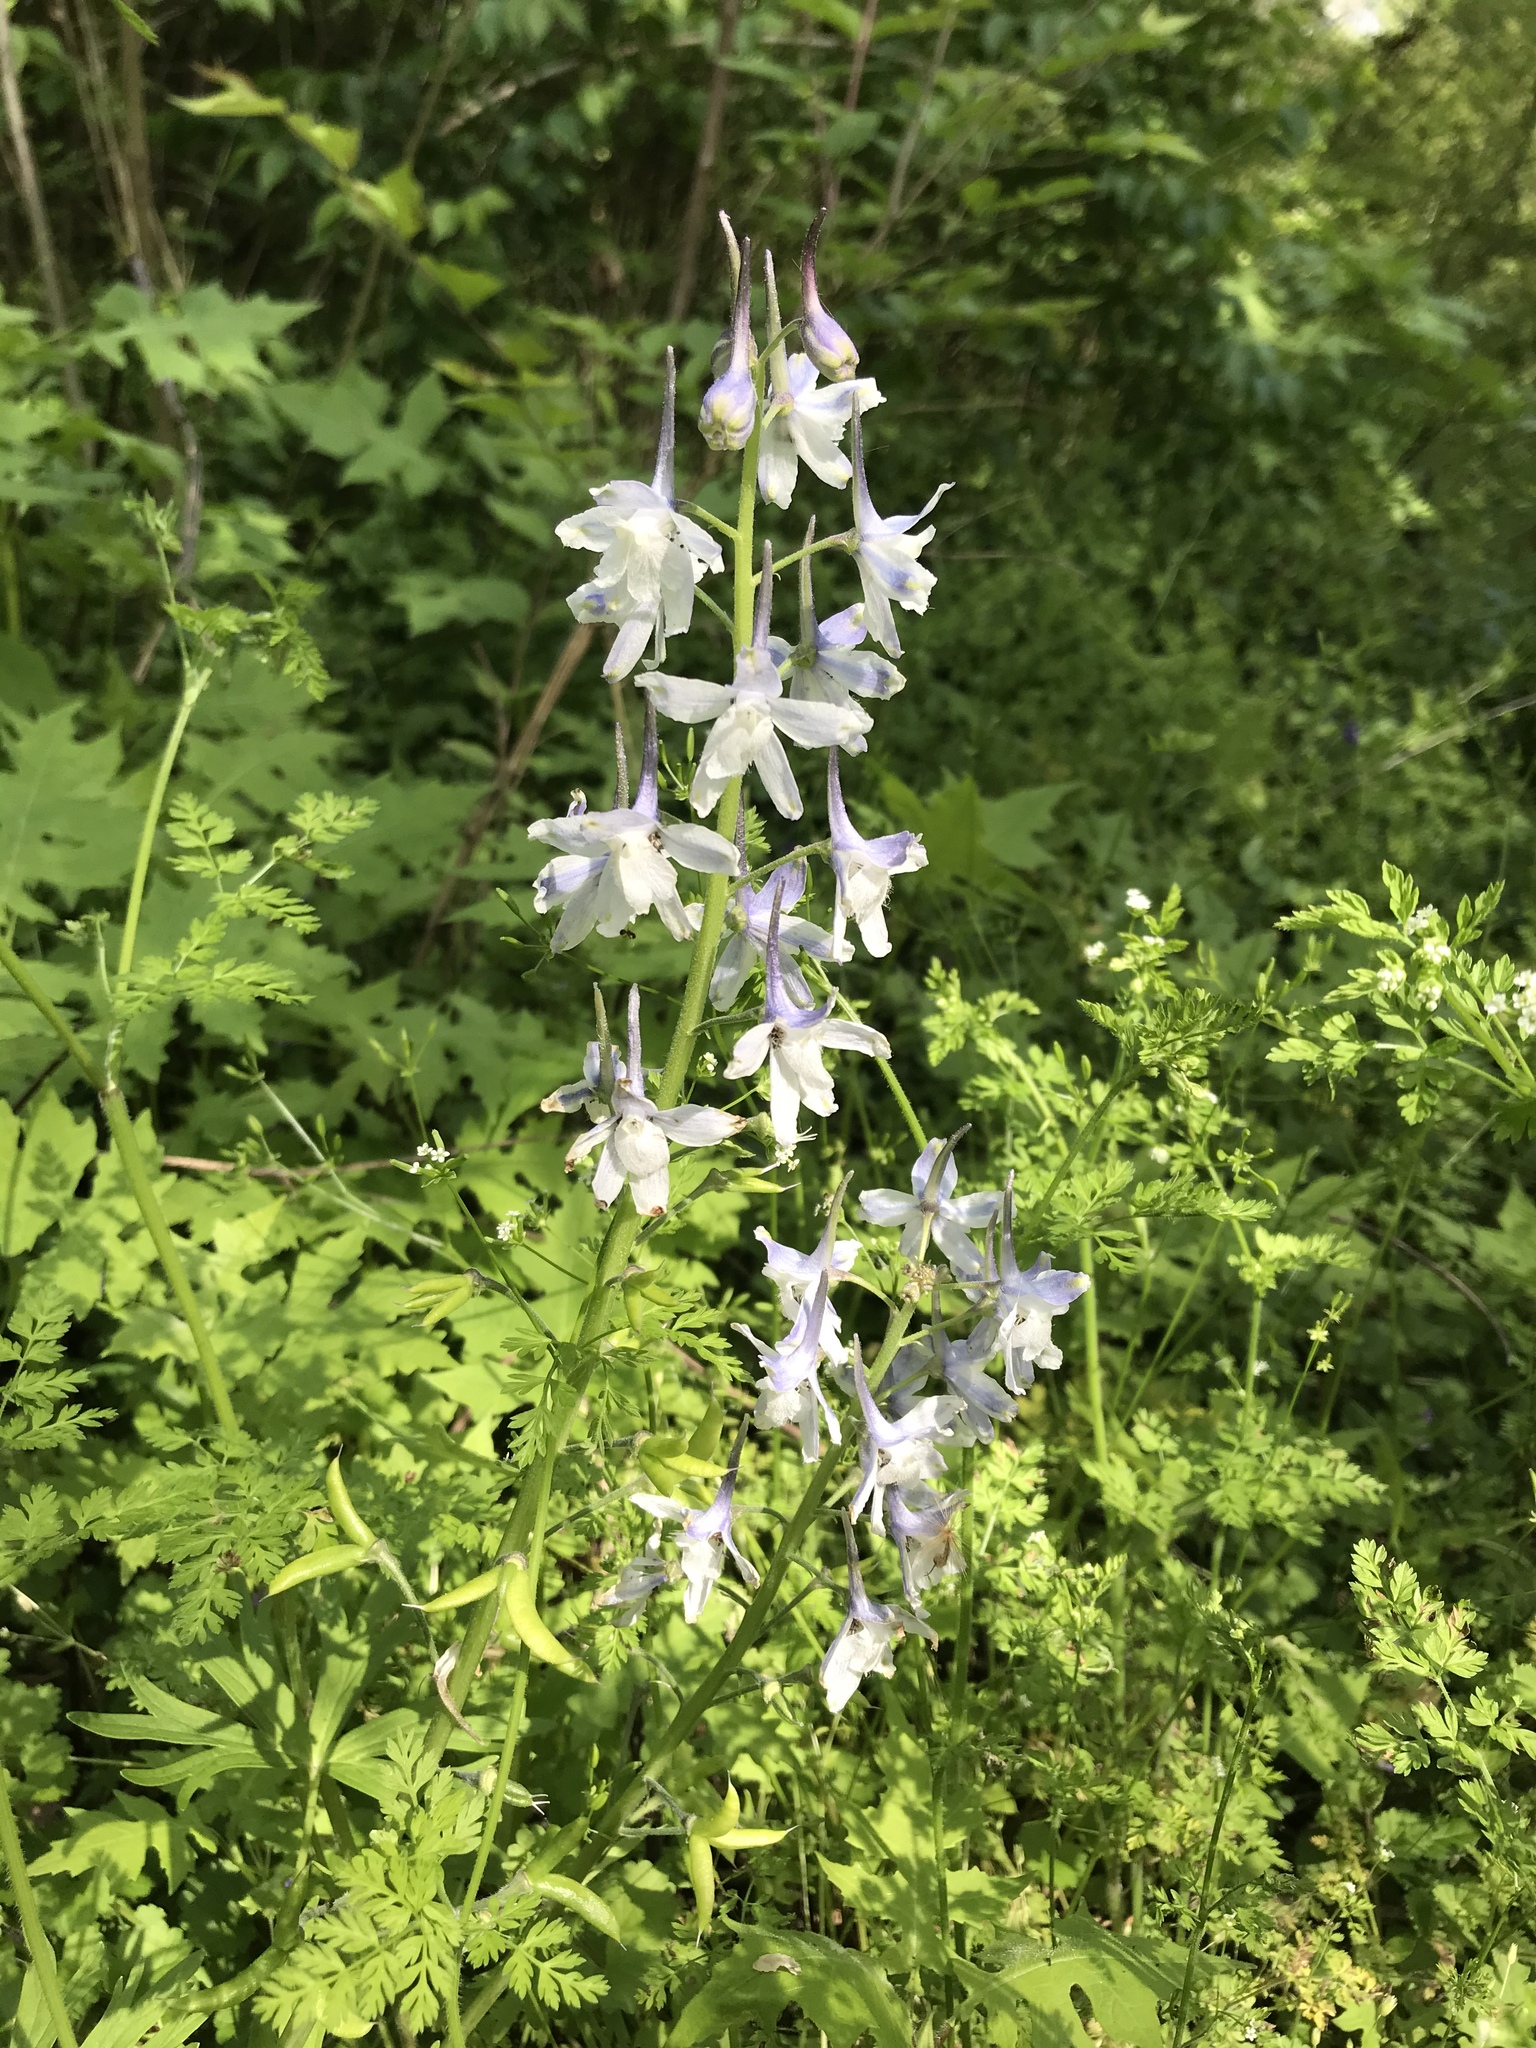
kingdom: Plantae
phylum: Tracheophyta
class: Magnoliopsida
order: Ranunculales
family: Ranunculaceae
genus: Delphinium
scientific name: Delphinium tricorne
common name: Dwarf larkspur
